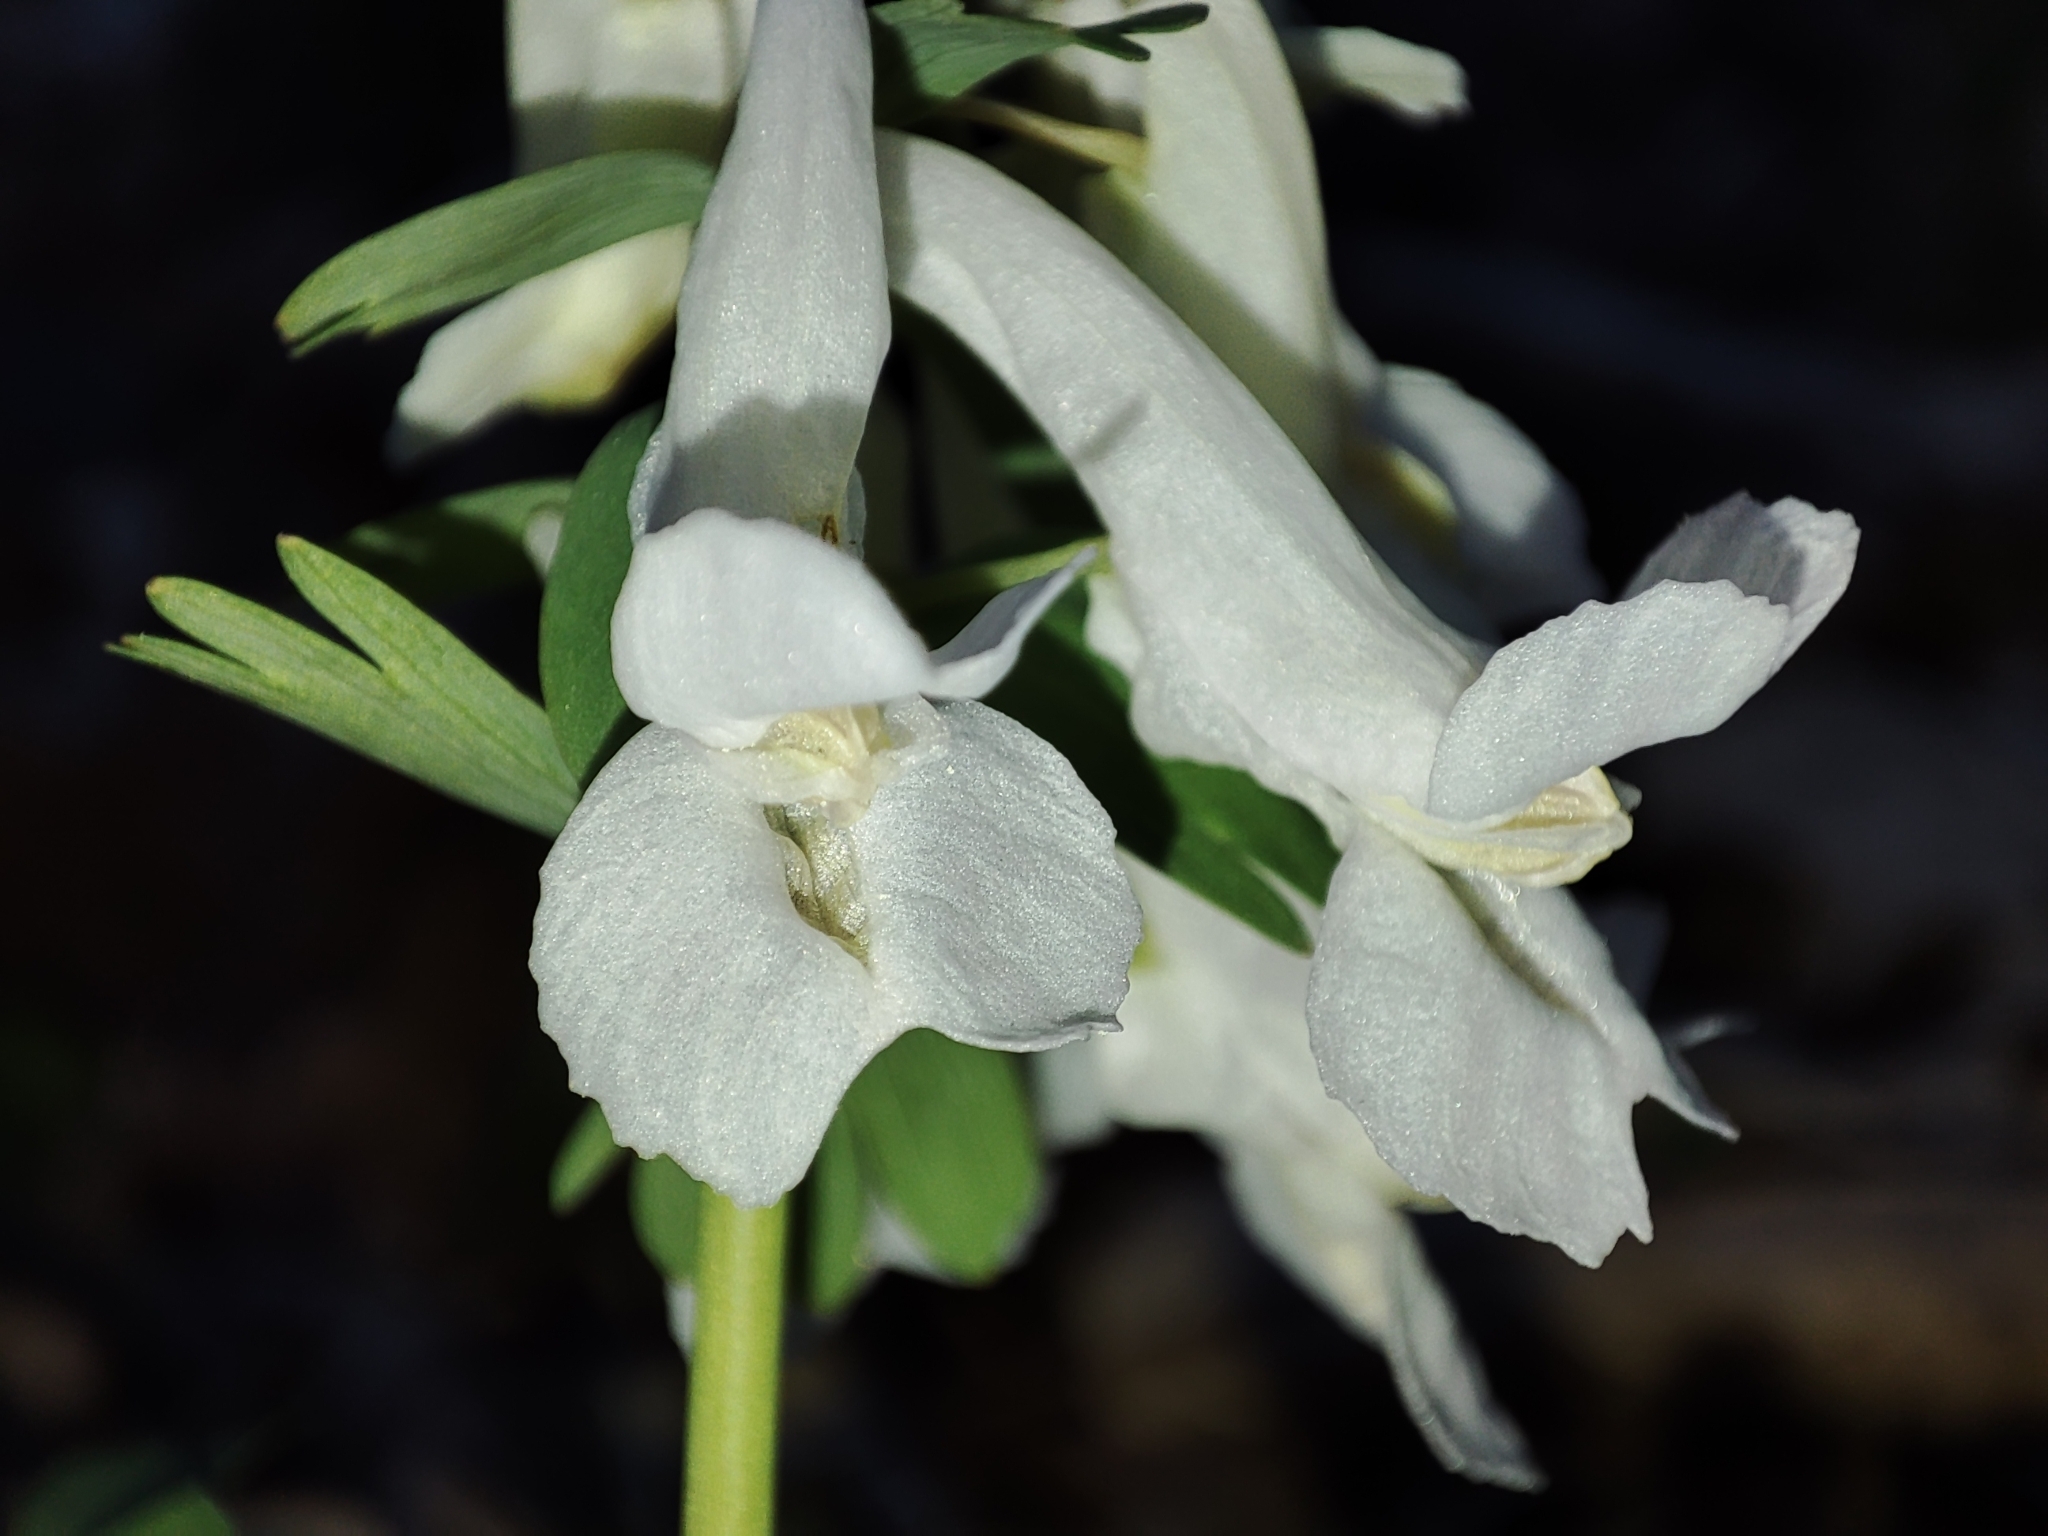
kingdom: Plantae
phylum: Tracheophyta
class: Magnoliopsida
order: Ranunculales
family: Papaveraceae
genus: Corydalis
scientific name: Corydalis solida
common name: Bird-in-a-bush
